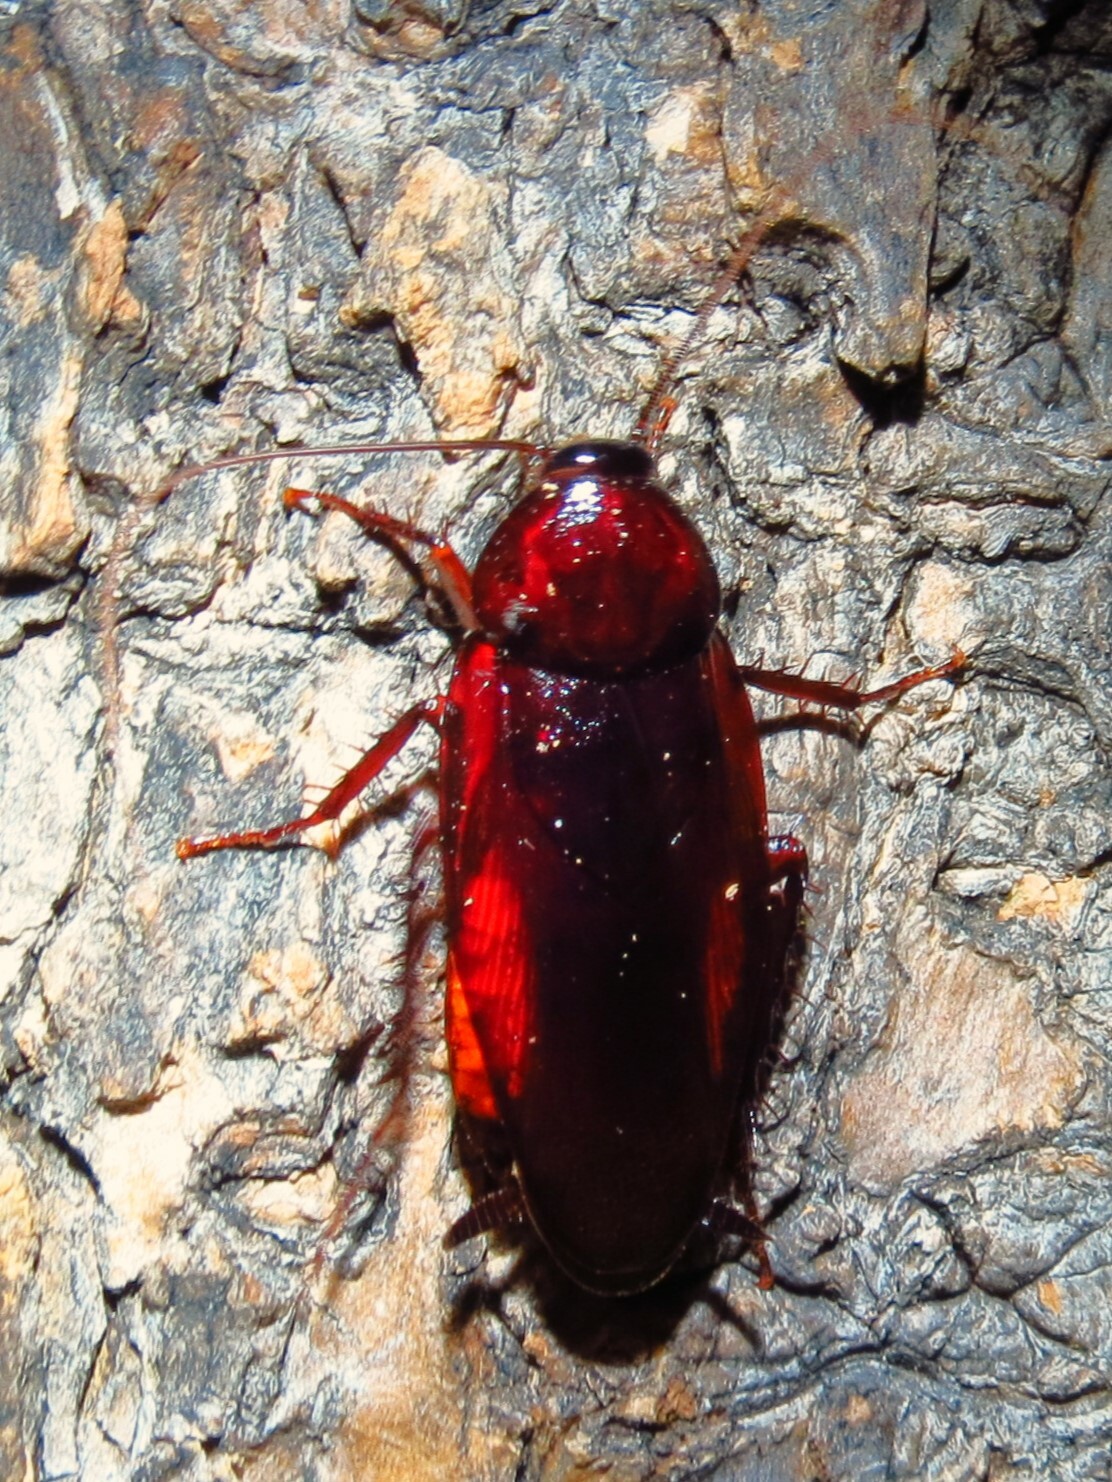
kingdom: Animalia
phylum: Arthropoda
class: Insecta
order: Blattodea
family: Blattidae
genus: Periplaneta
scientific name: Periplaneta fuliginosa
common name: Smokeybrown cockroad
